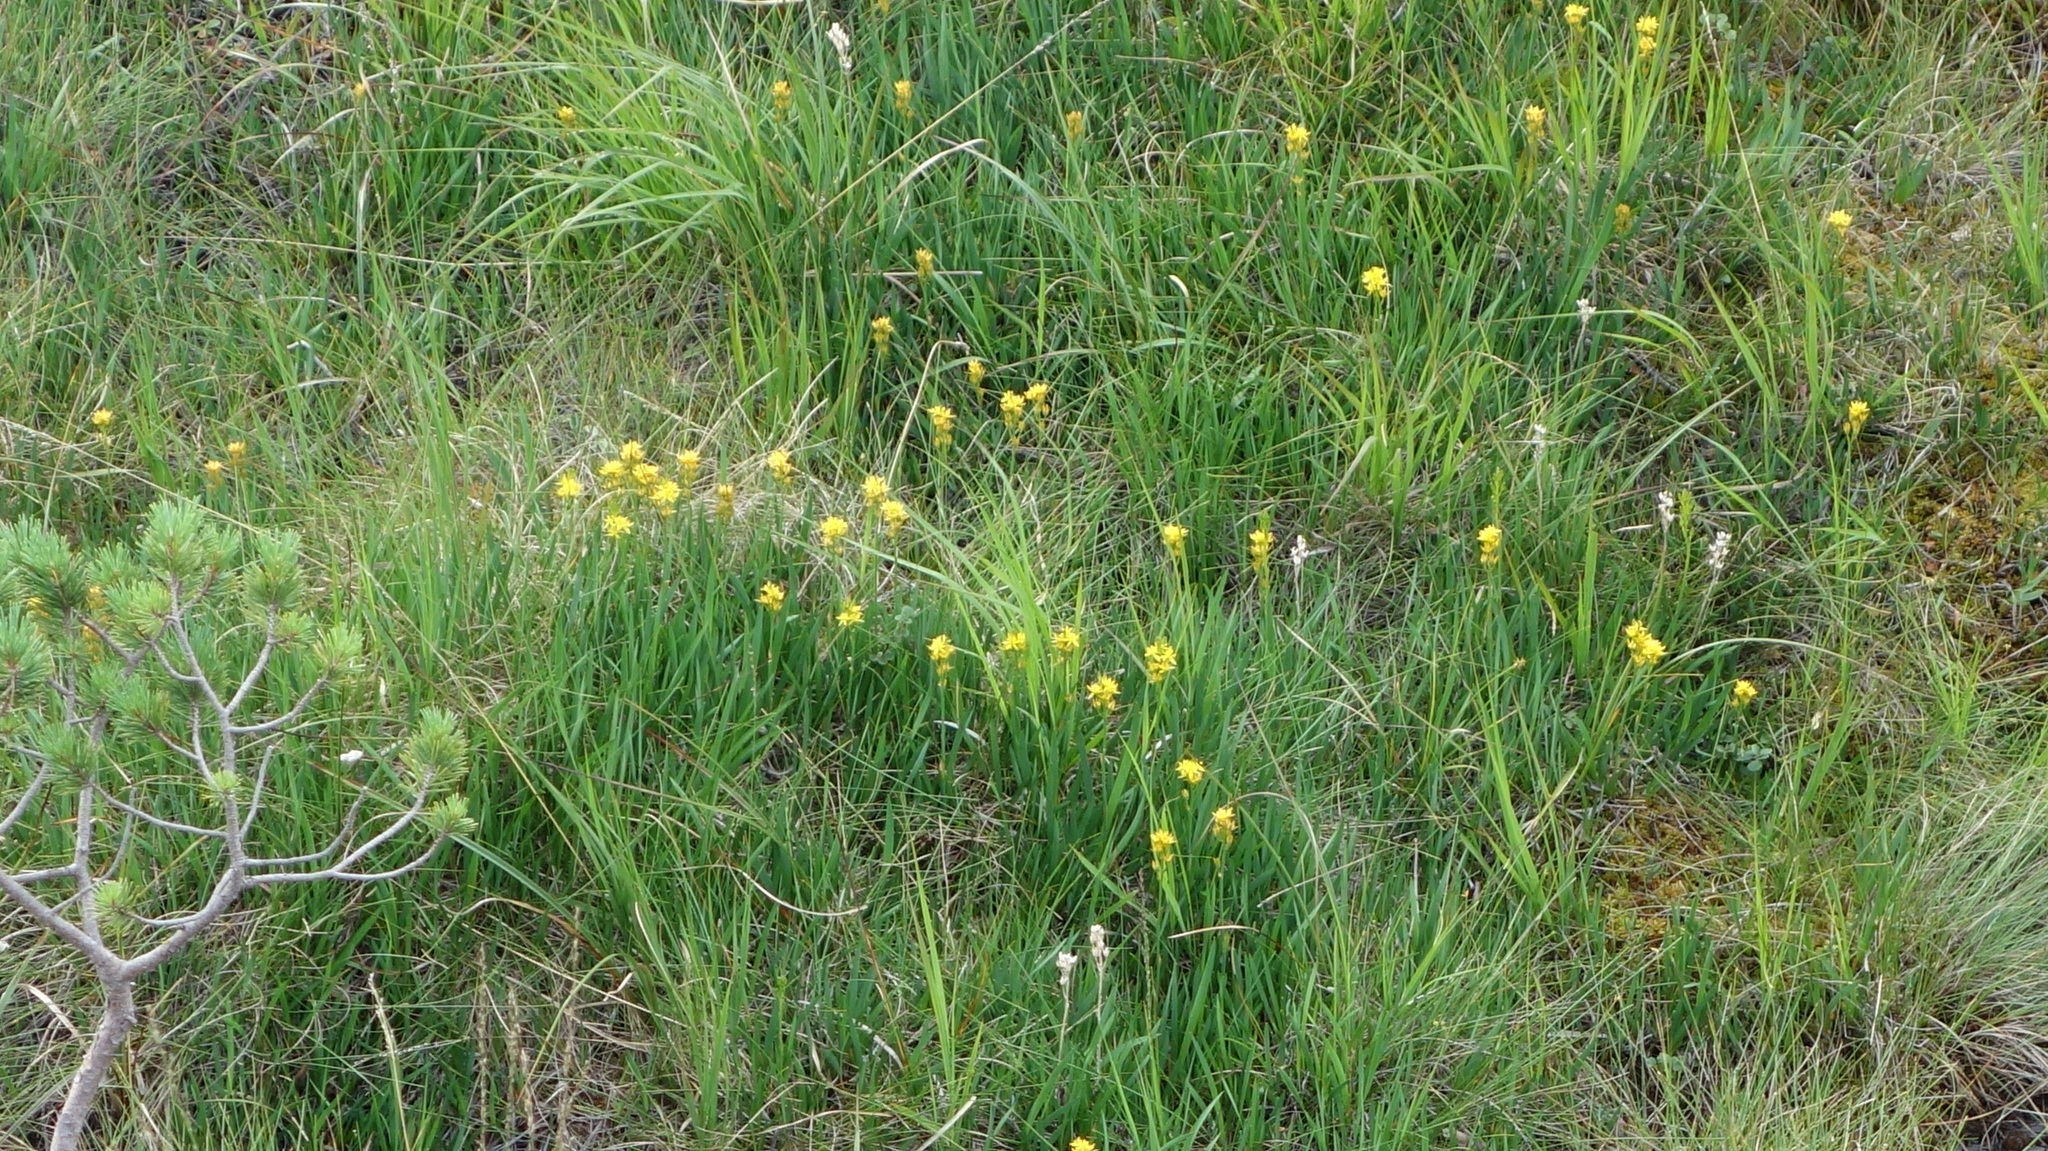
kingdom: Plantae
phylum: Tracheophyta
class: Liliopsida
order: Dioscoreales
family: Nartheciaceae
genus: Narthecium
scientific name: Narthecium ossifragum
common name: Bog asphodel
